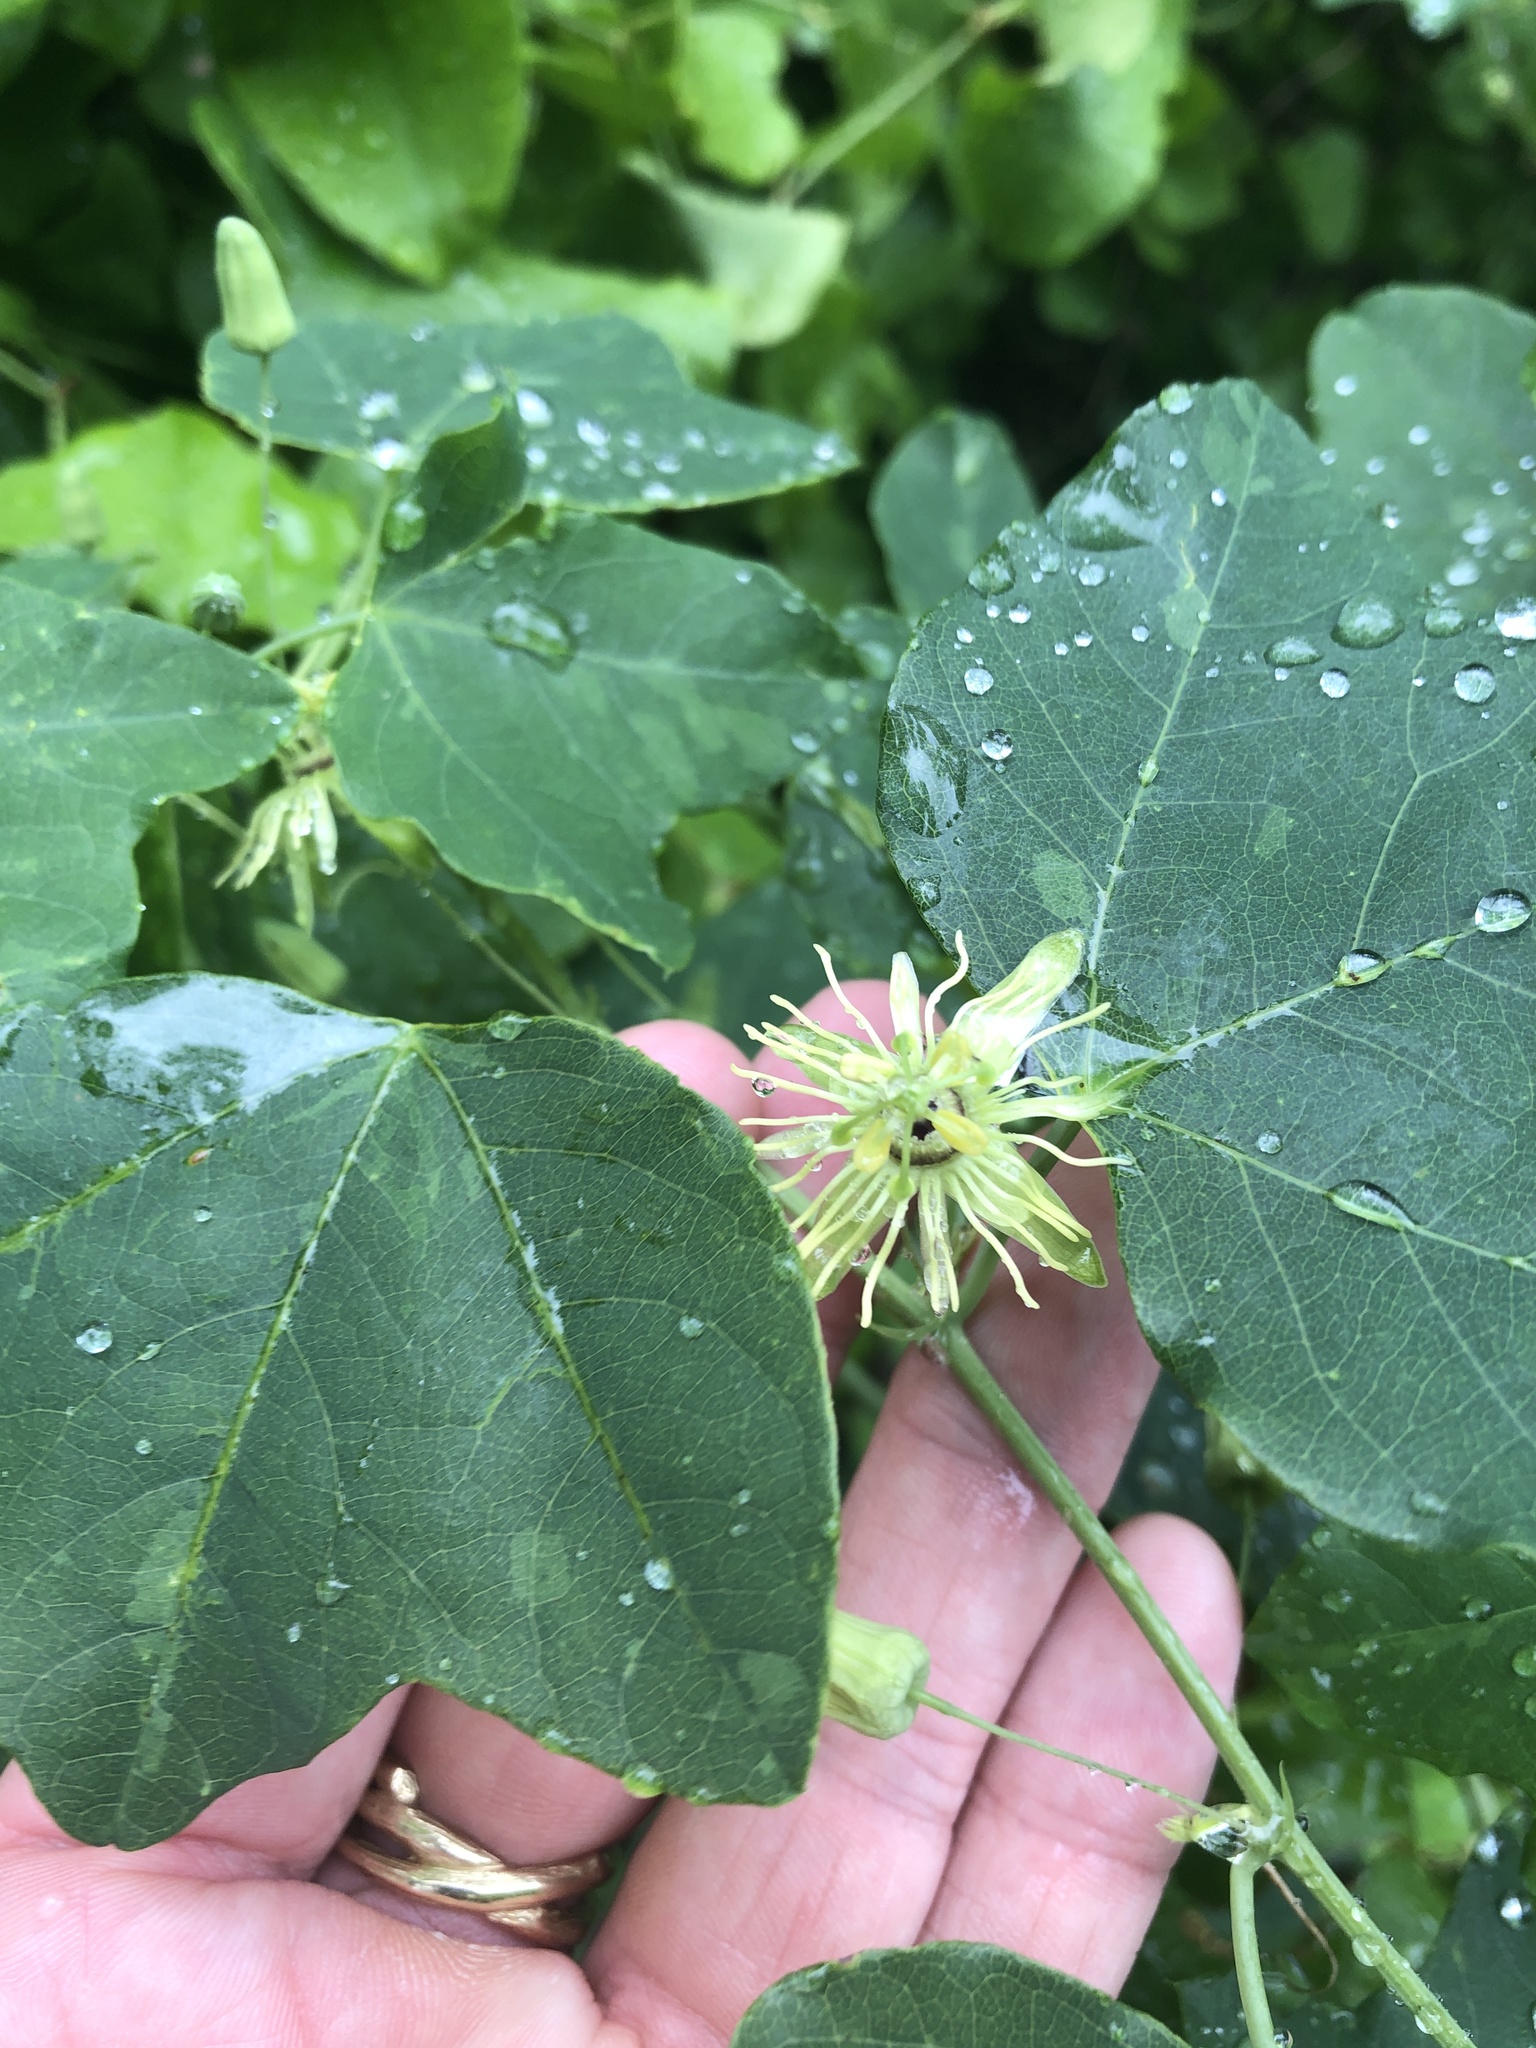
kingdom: Plantae
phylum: Tracheophyta
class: Magnoliopsida
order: Malpighiales
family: Passifloraceae
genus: Passiflora
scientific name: Passiflora lutea
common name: Yellow passionflower
